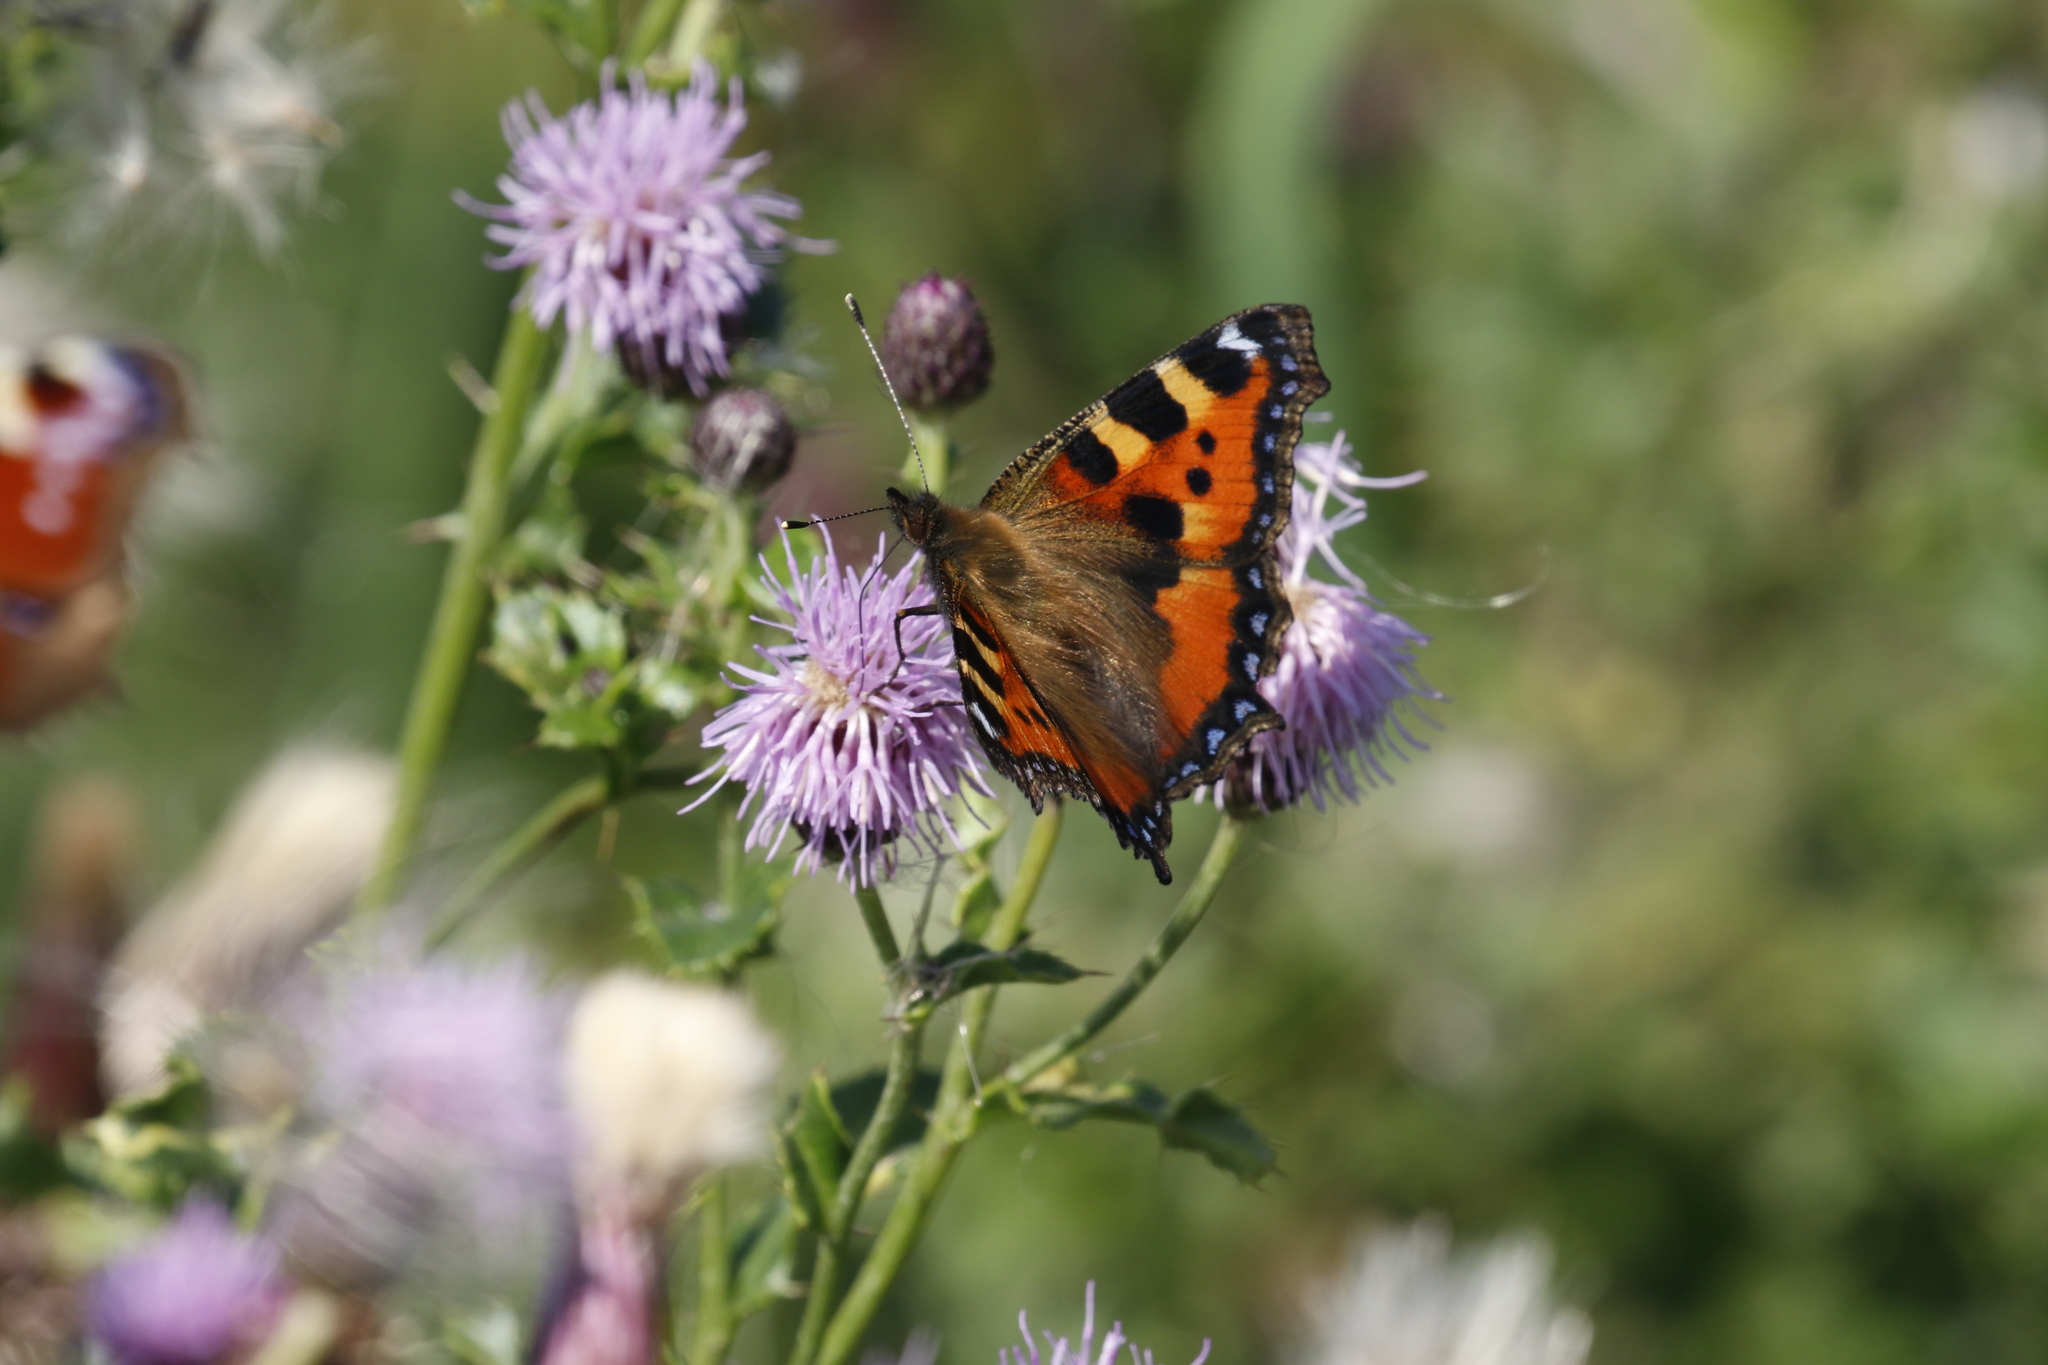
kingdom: Animalia
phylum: Arthropoda
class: Insecta
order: Lepidoptera
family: Nymphalidae
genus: Aglais
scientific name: Aglais urticae
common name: Small tortoiseshell
